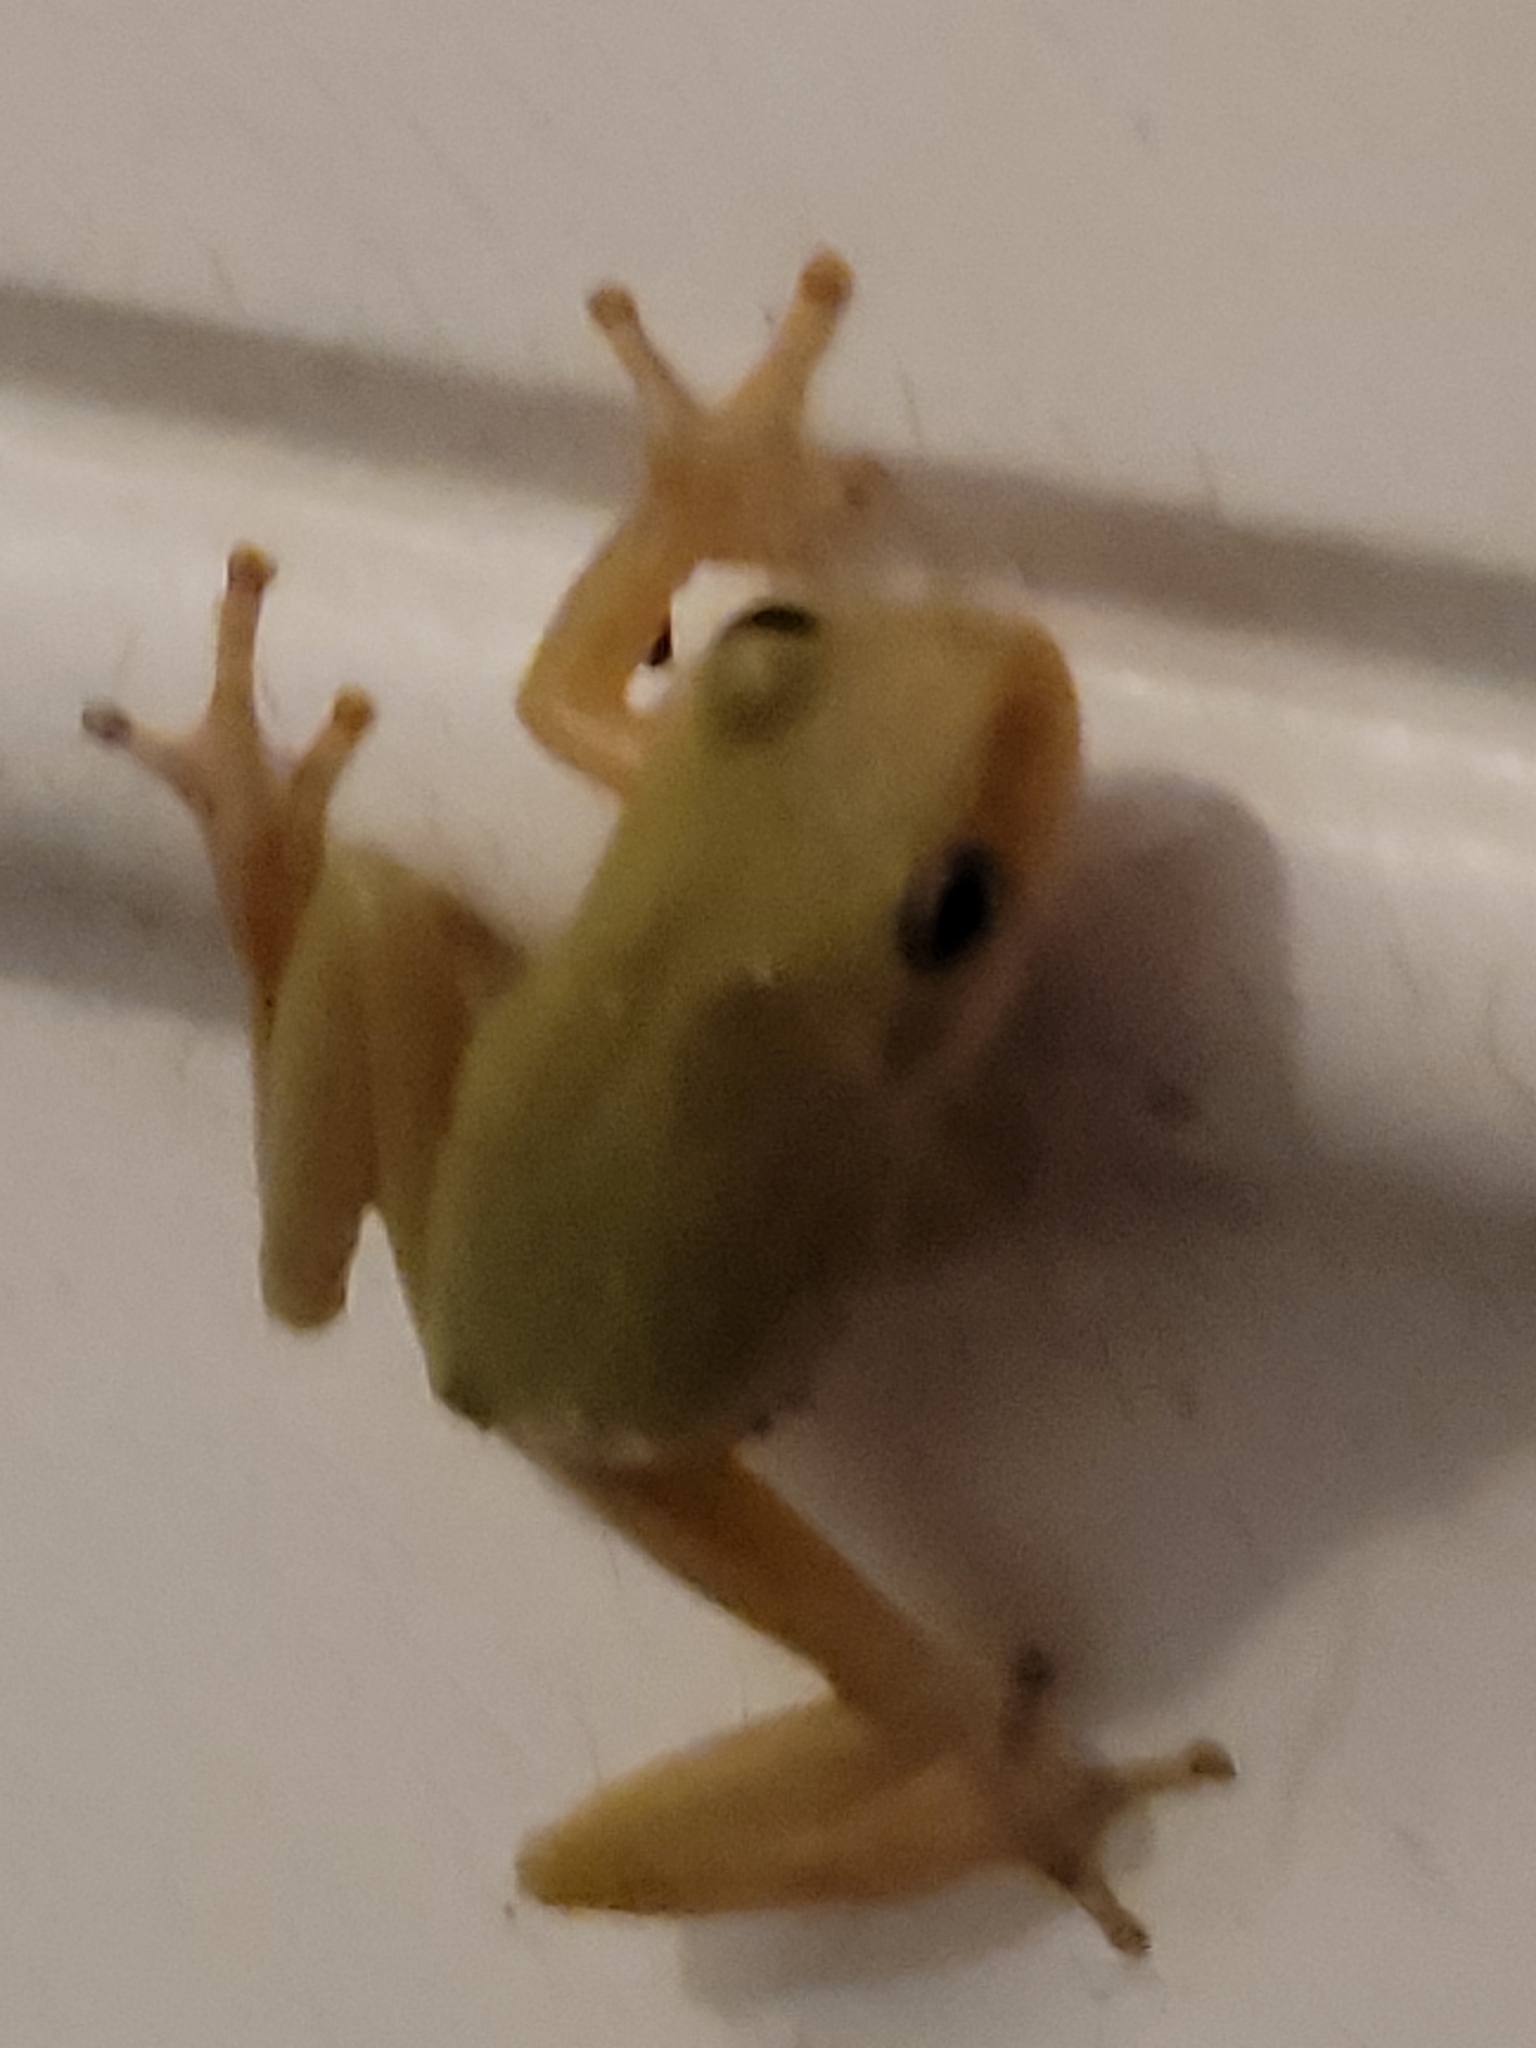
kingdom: Animalia
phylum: Chordata
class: Amphibia
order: Anura
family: Hylidae
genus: Dryophytes
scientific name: Dryophytes squirellus
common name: Squirrel treefrog
